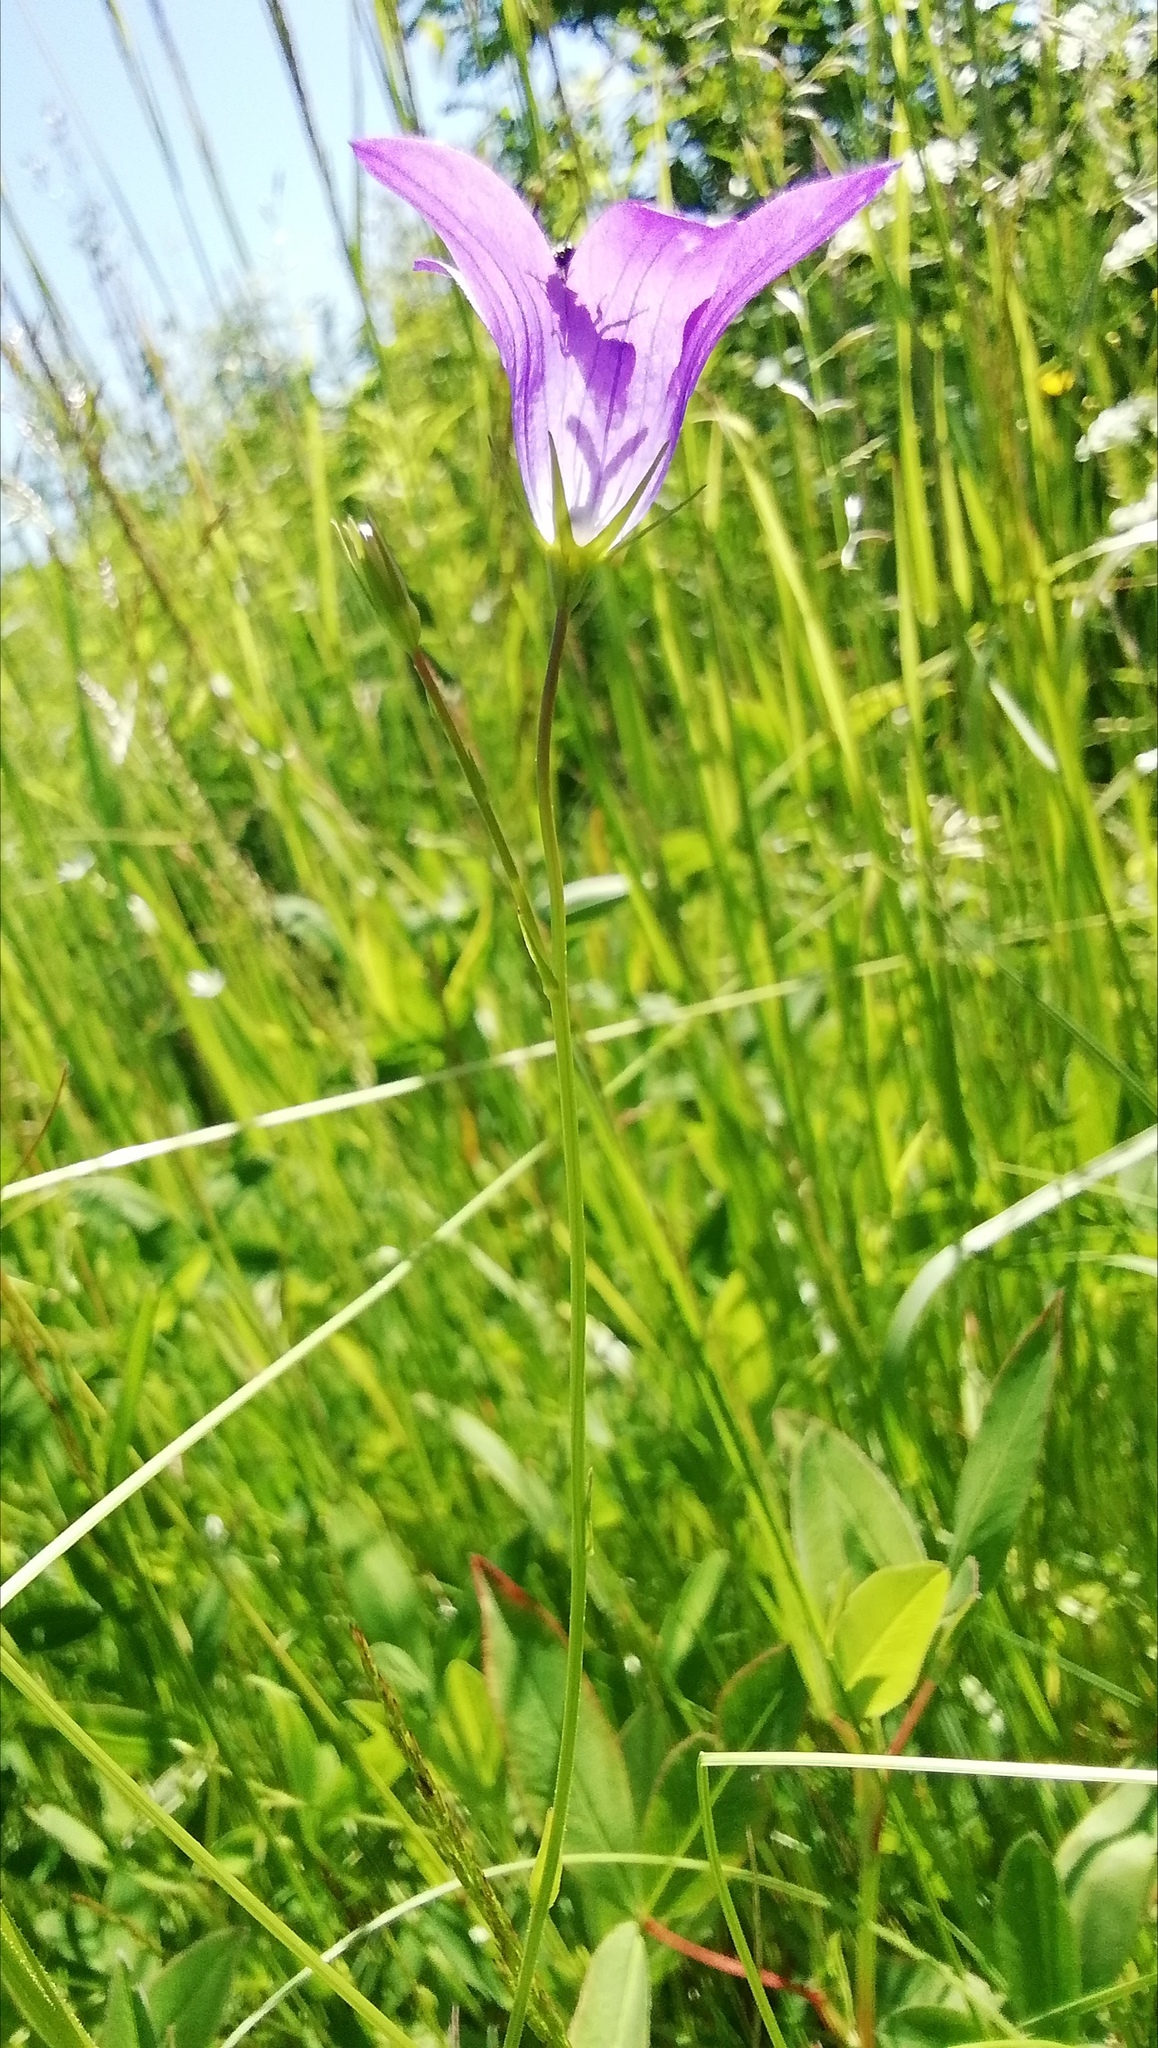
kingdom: Plantae
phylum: Tracheophyta
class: Magnoliopsida
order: Asterales
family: Campanulaceae
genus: Campanula
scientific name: Campanula patula
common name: Spreading bellflower
